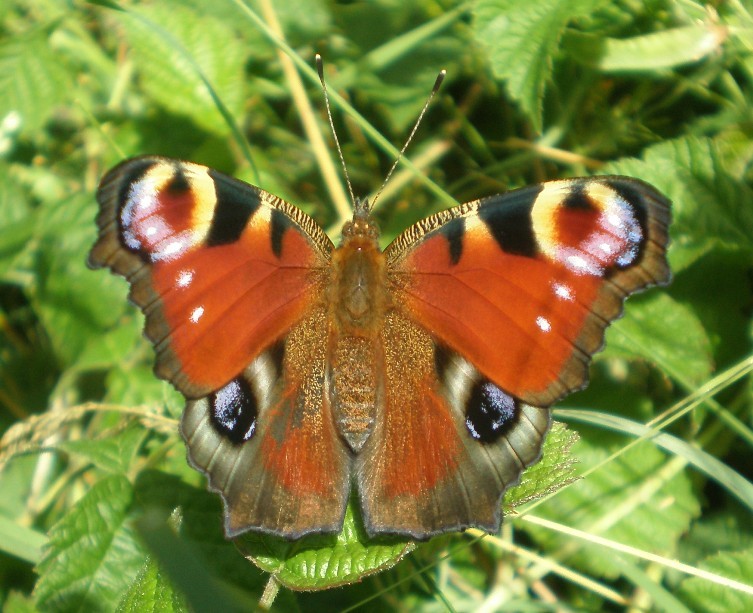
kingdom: Animalia
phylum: Arthropoda
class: Insecta
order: Lepidoptera
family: Nymphalidae
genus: Aglais
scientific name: Aglais io
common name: Peacock
